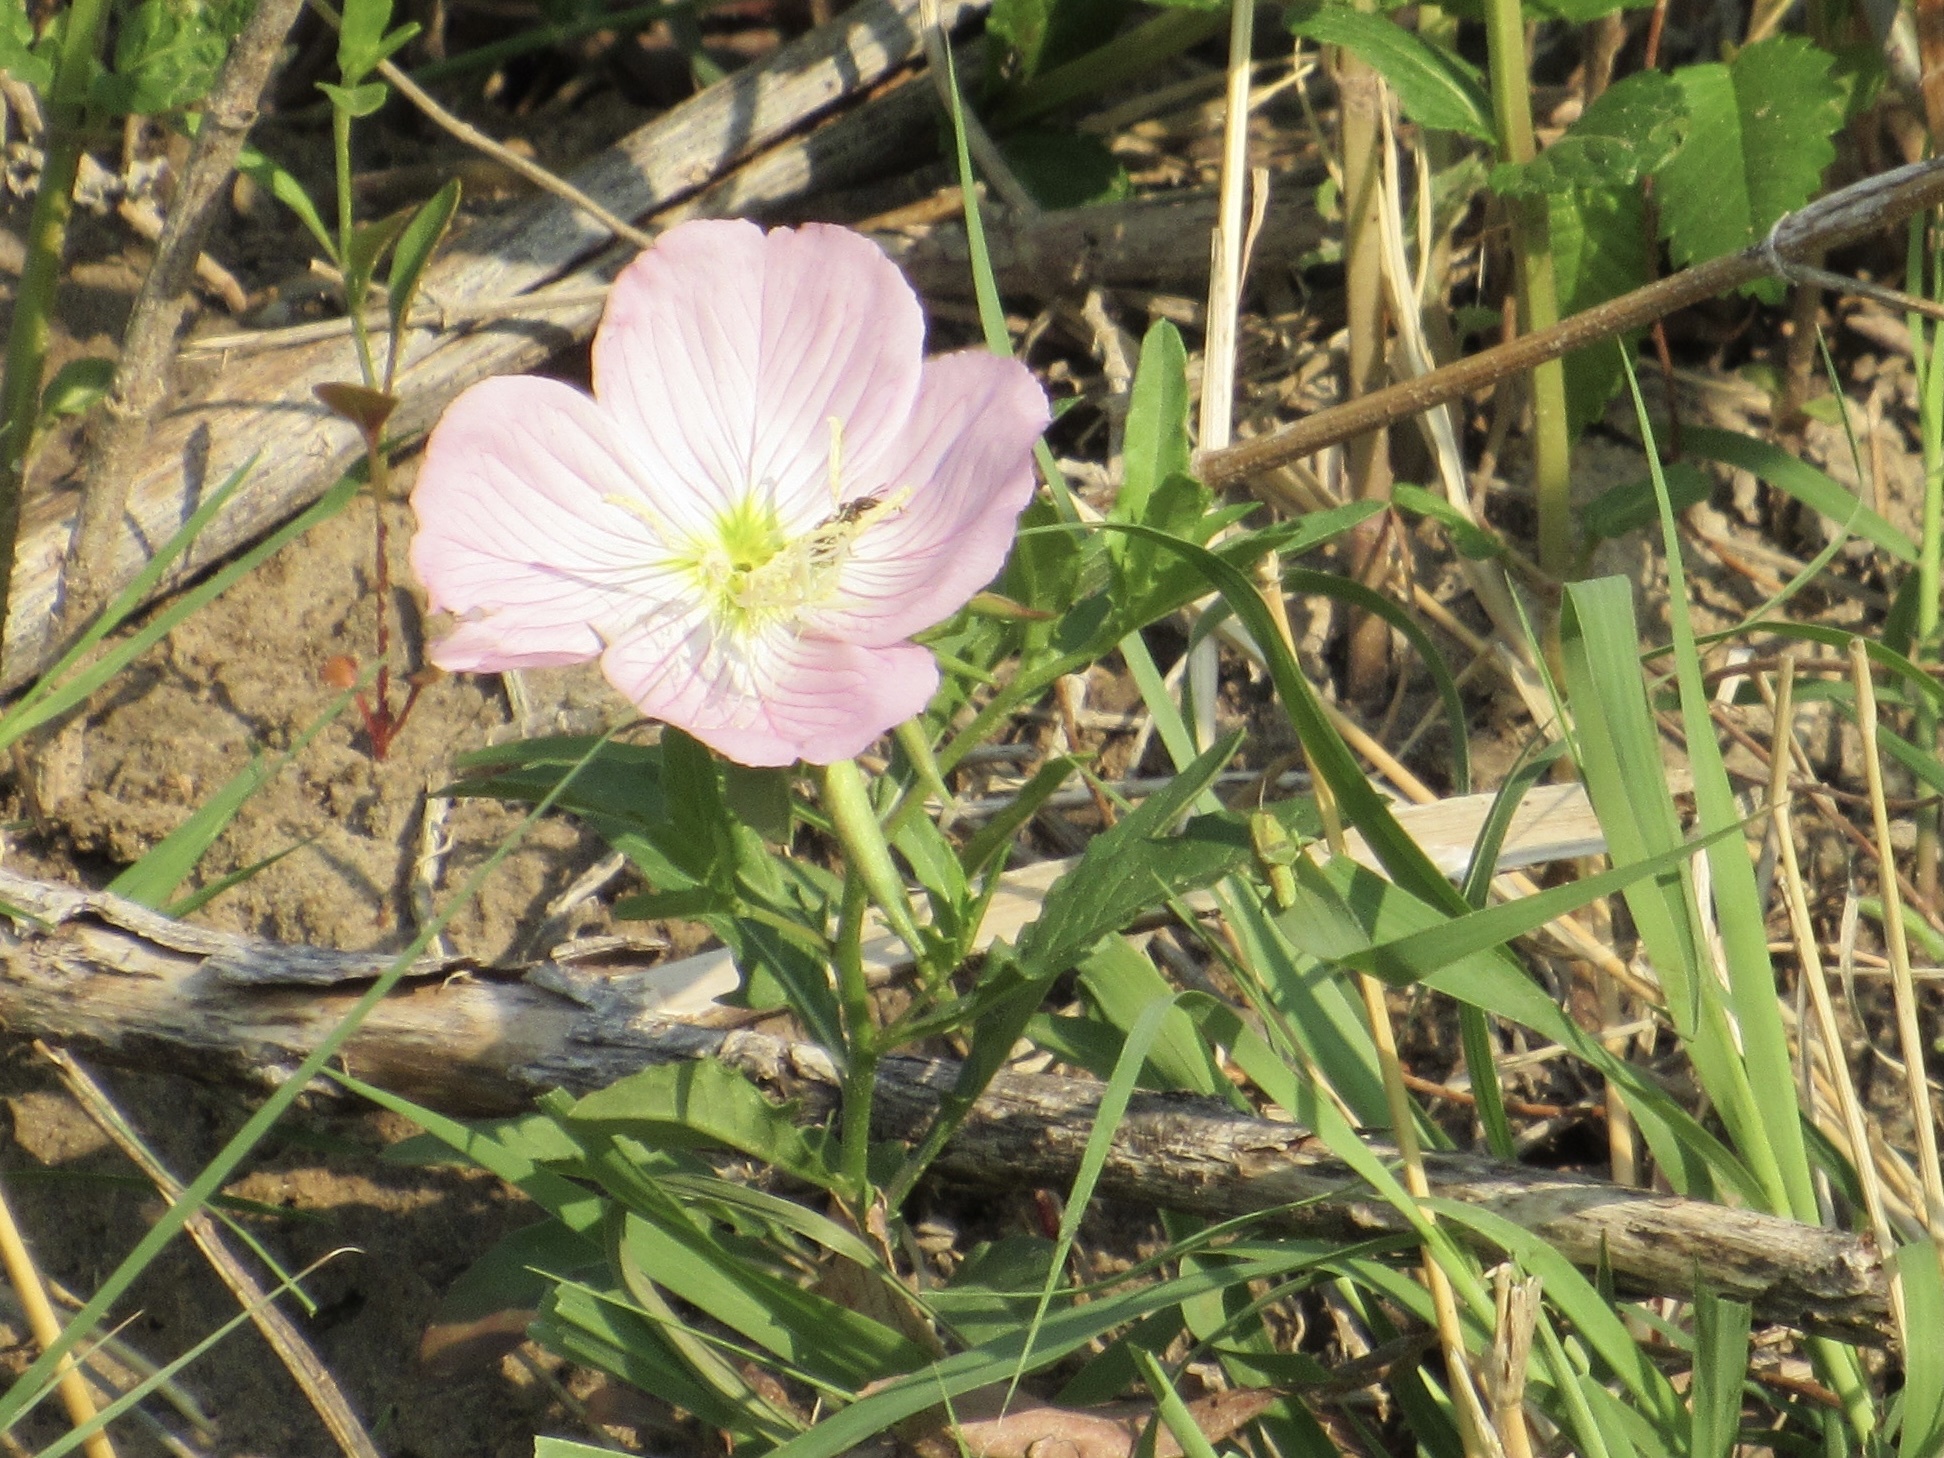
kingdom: Plantae
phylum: Tracheophyta
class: Magnoliopsida
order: Myrtales
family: Onagraceae
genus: Oenothera
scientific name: Oenothera speciosa
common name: White evening-primrose
